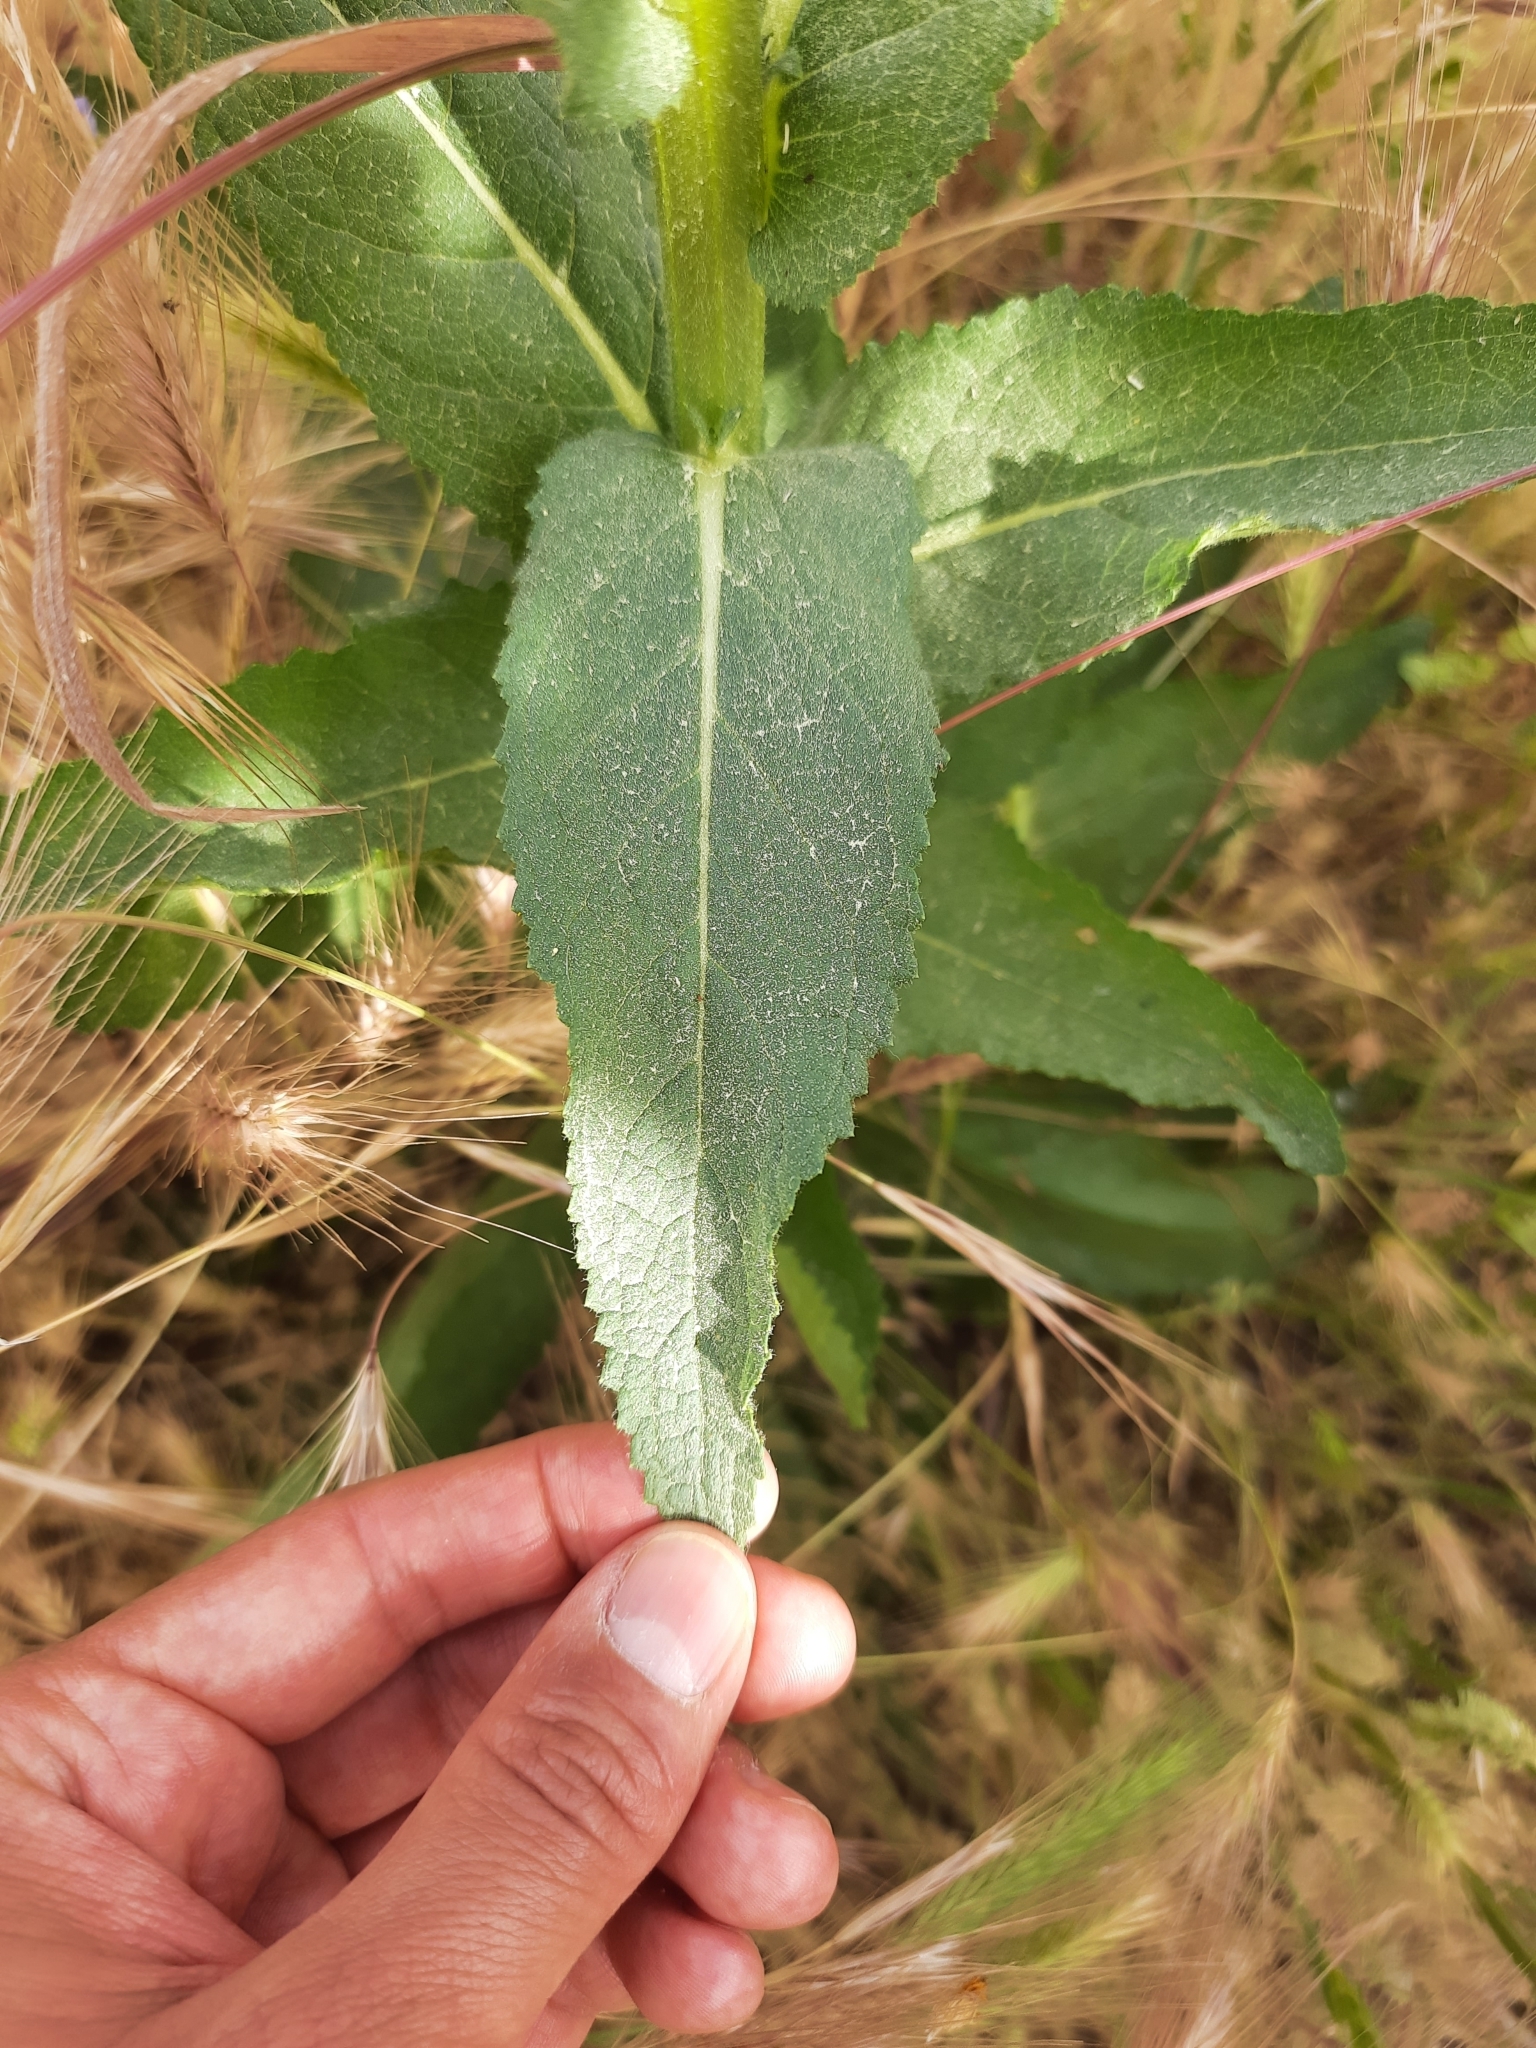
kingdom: Plantae
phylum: Tracheophyta
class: Magnoliopsida
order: Lamiales
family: Scrophulariaceae
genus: Verbascum
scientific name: Verbascum virgatum
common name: Twiggy mullein
